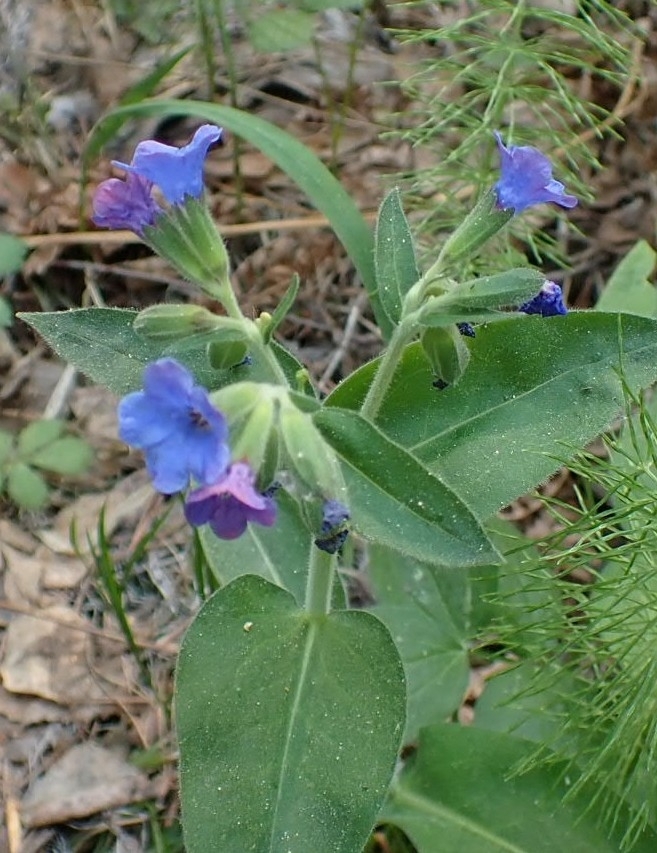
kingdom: Plantae
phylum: Tracheophyta
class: Magnoliopsida
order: Boraginales
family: Boraginaceae
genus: Pulmonaria
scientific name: Pulmonaria mollis
